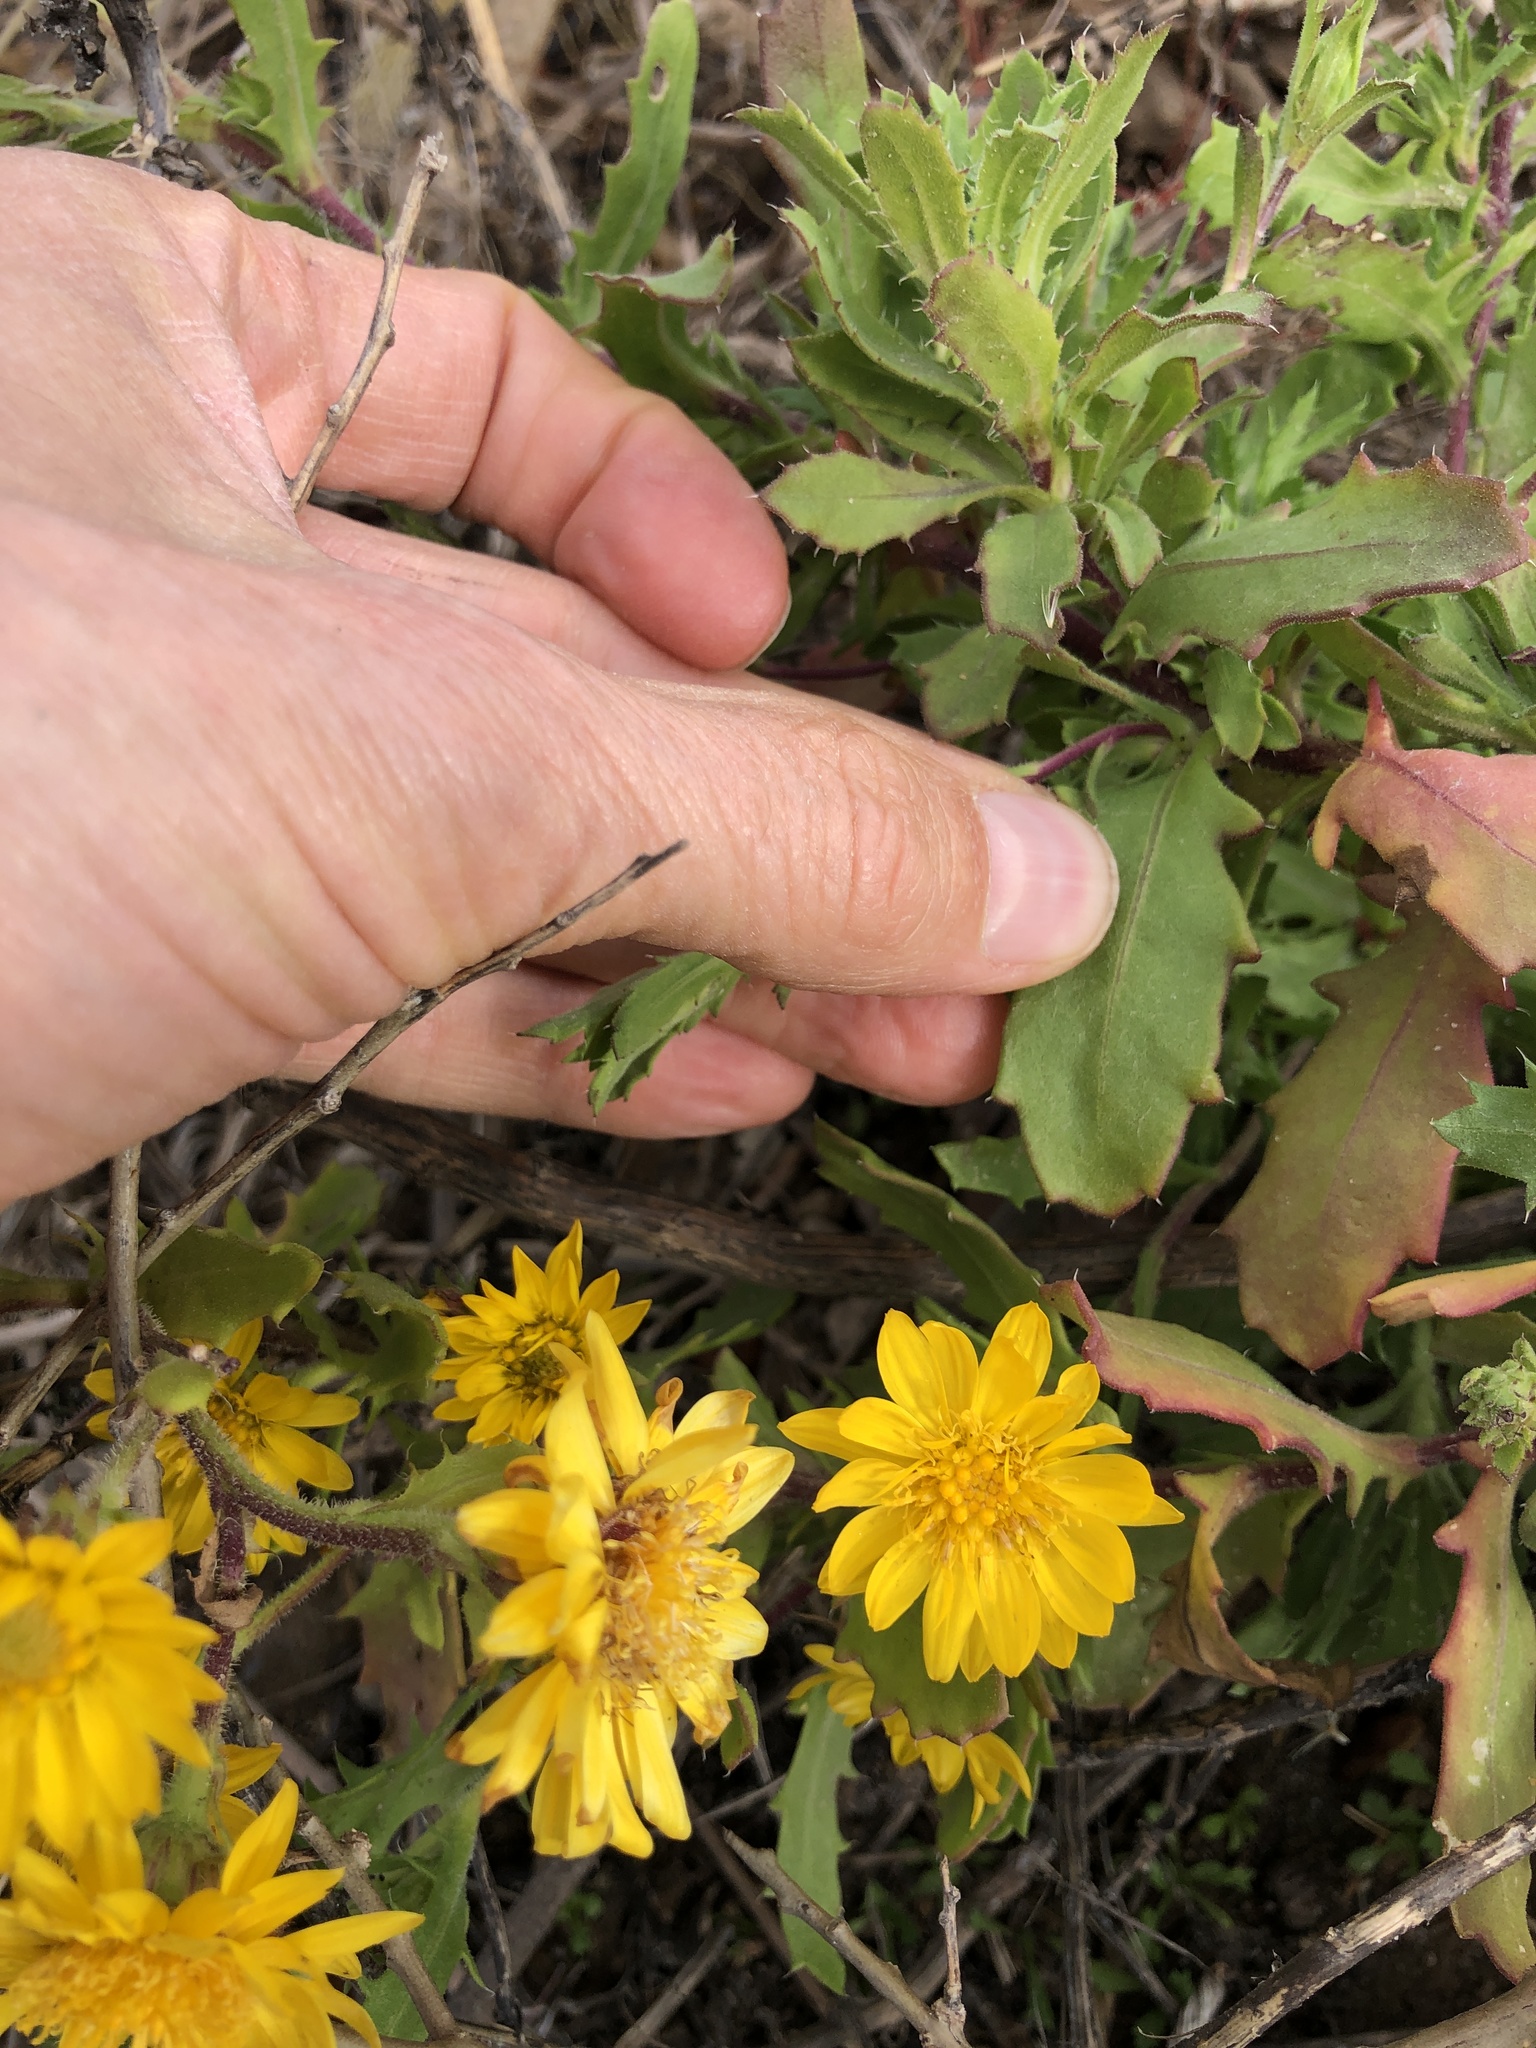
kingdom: Plantae
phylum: Tracheophyta
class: Magnoliopsida
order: Asterales
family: Asteraceae
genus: Rayjacksonia
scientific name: Rayjacksonia phyllocephala
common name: Gulf coast camphor daisy
